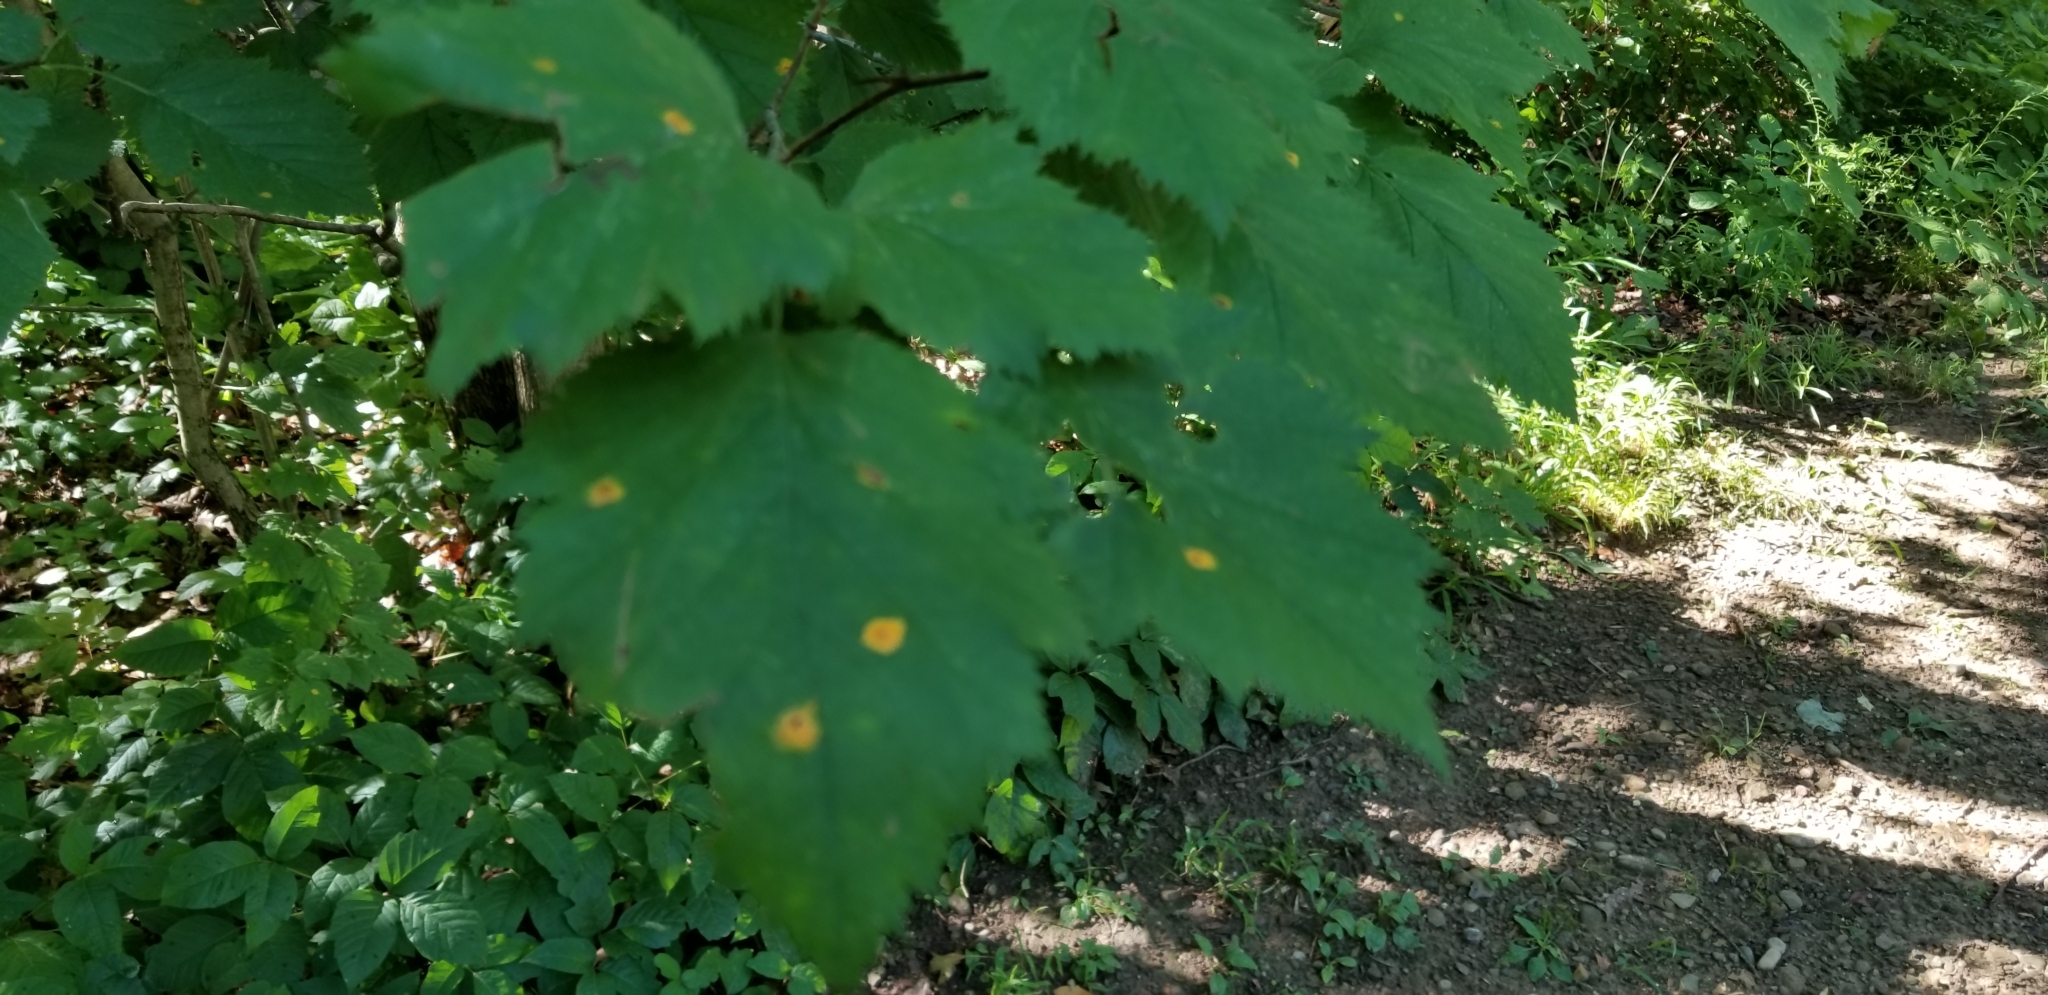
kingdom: Fungi
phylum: Basidiomycota
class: Pucciniomycetes
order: Pucciniales
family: Gymnosporangiaceae
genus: Gymnosporangium
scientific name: Gymnosporangium globosum
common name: Juniper-hawthorn rust
